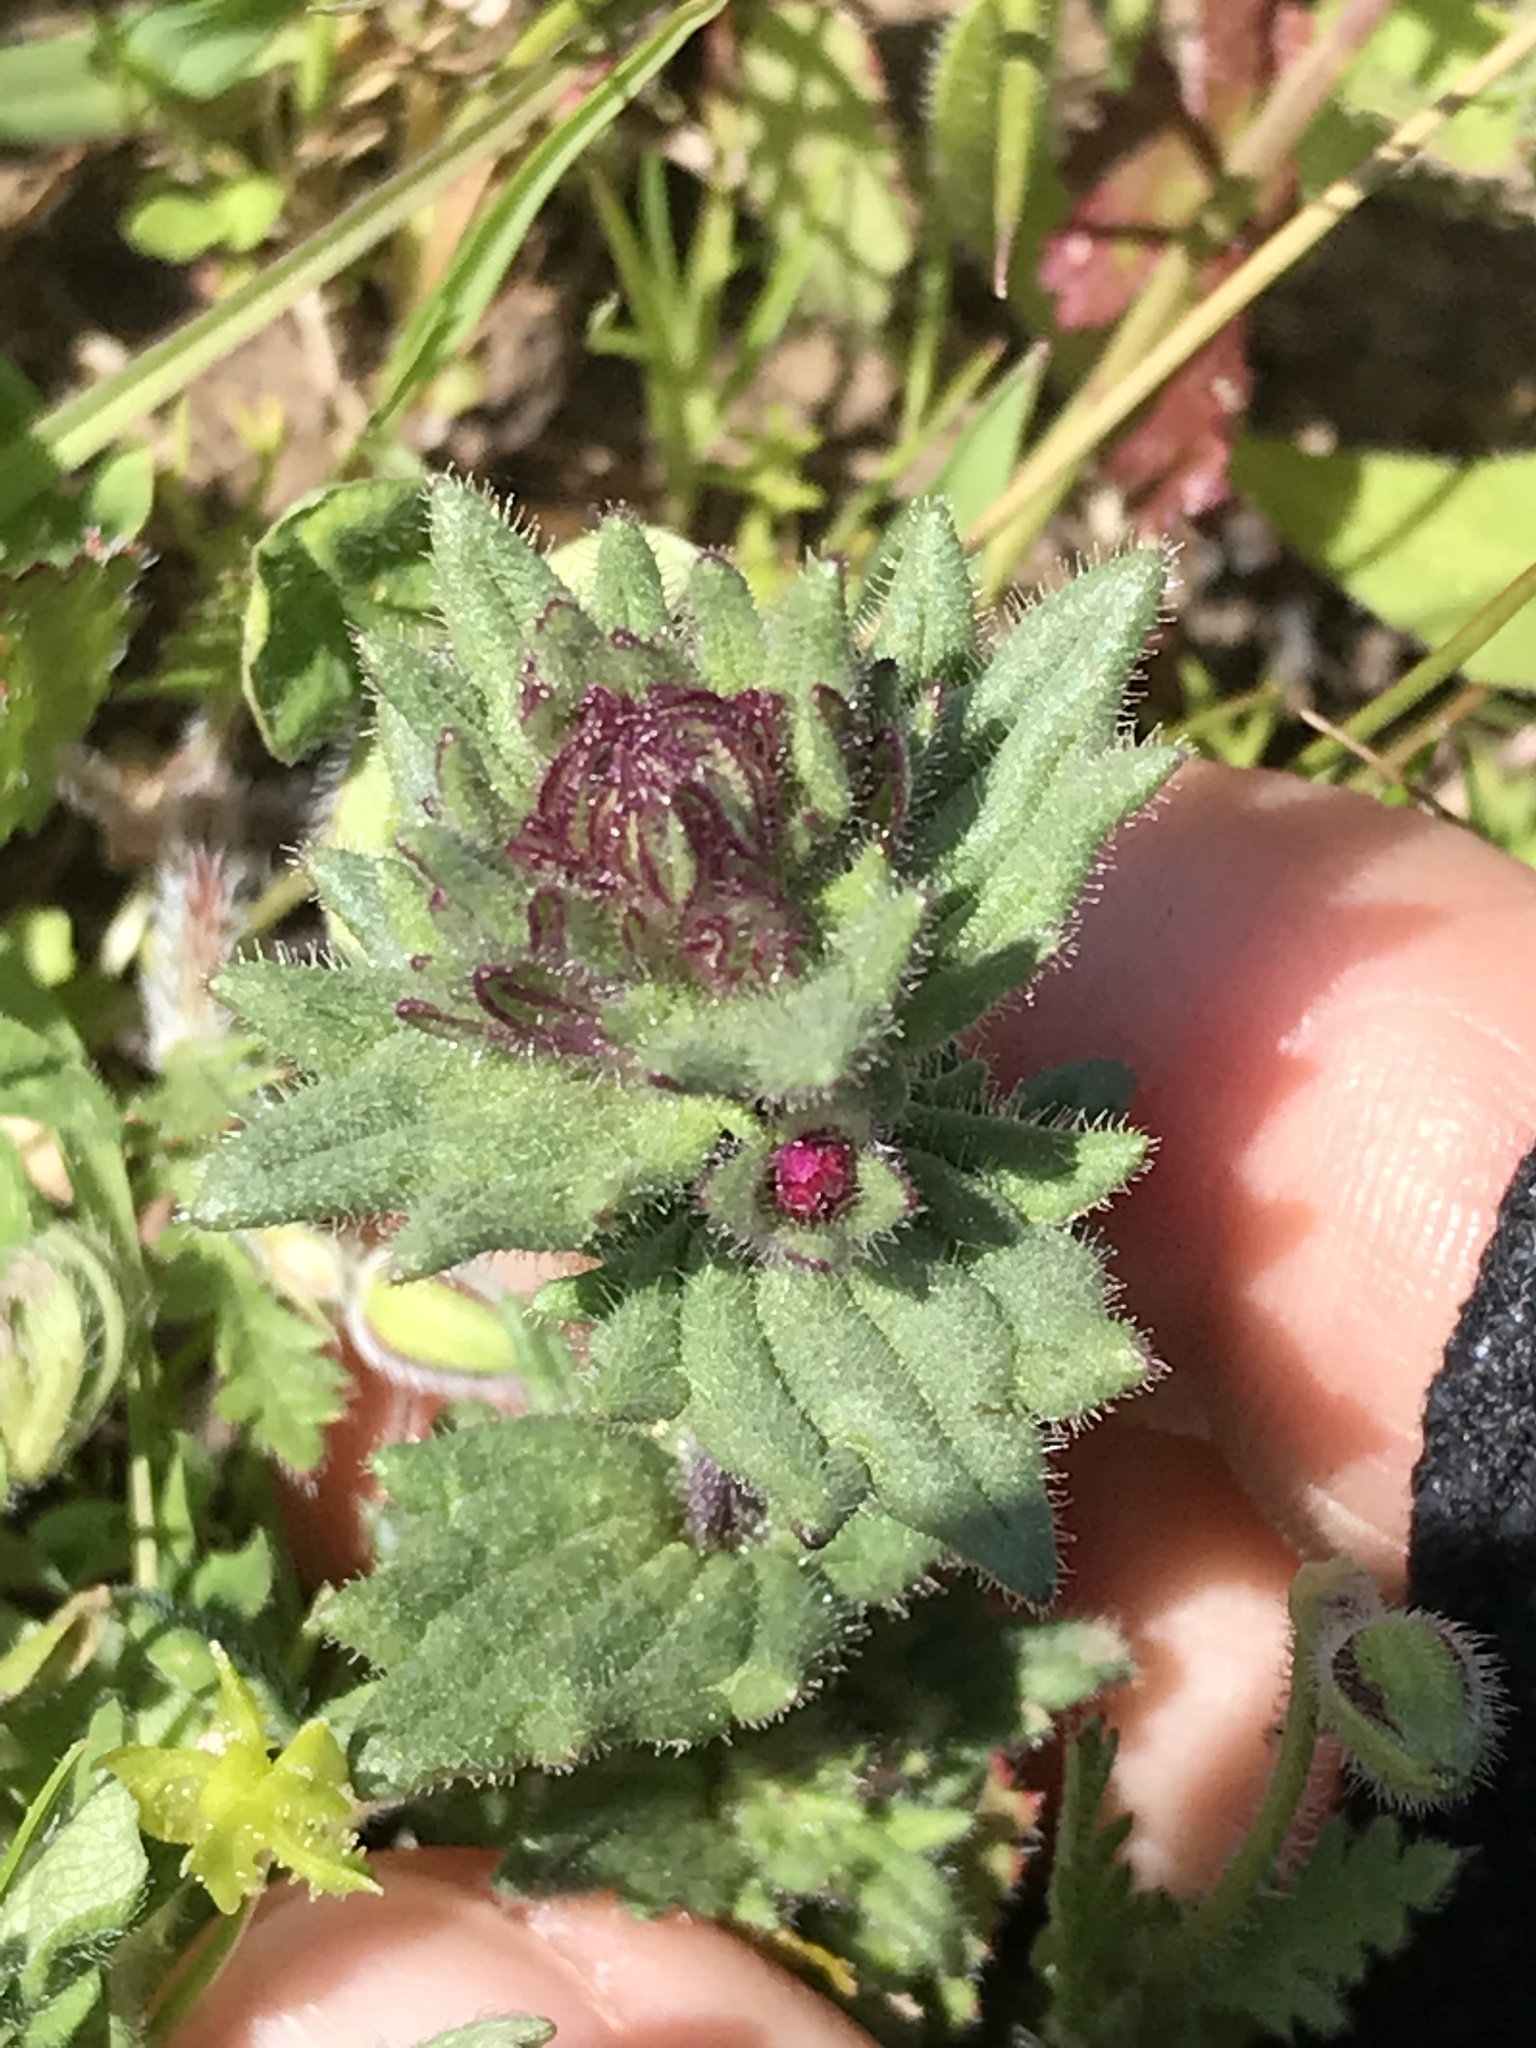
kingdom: Plantae
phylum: Tracheophyta
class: Magnoliopsida
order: Lamiales
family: Orobanchaceae
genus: Parentucellia
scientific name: Parentucellia latifolia
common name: Broadleaf glandweed
